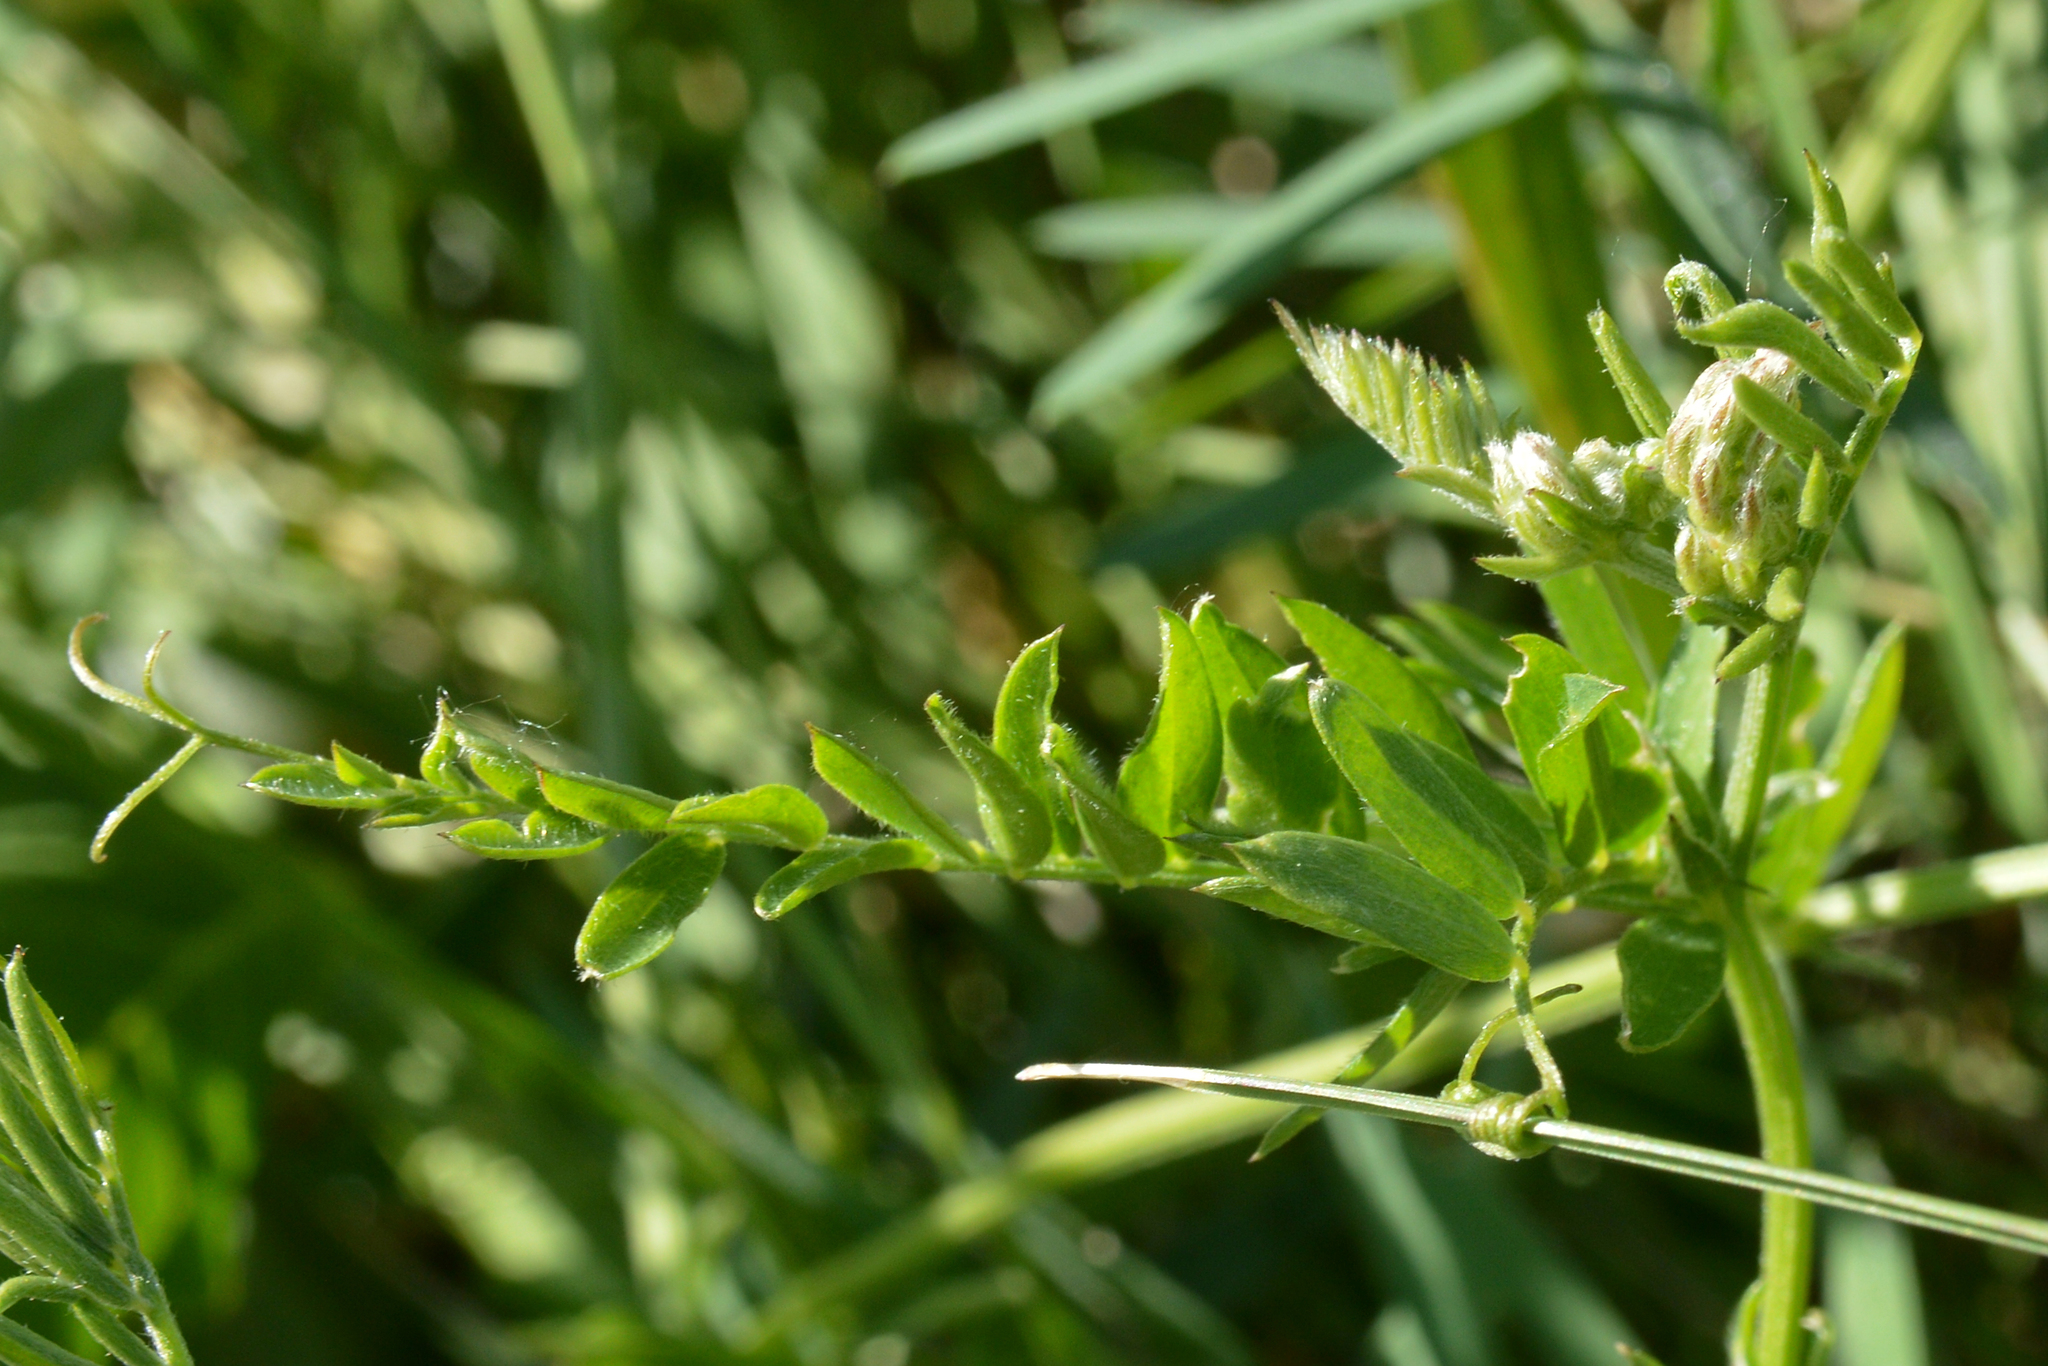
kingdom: Plantae
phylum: Tracheophyta
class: Magnoliopsida
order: Fabales
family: Fabaceae
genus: Vicia
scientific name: Vicia cracca
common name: Bird vetch
